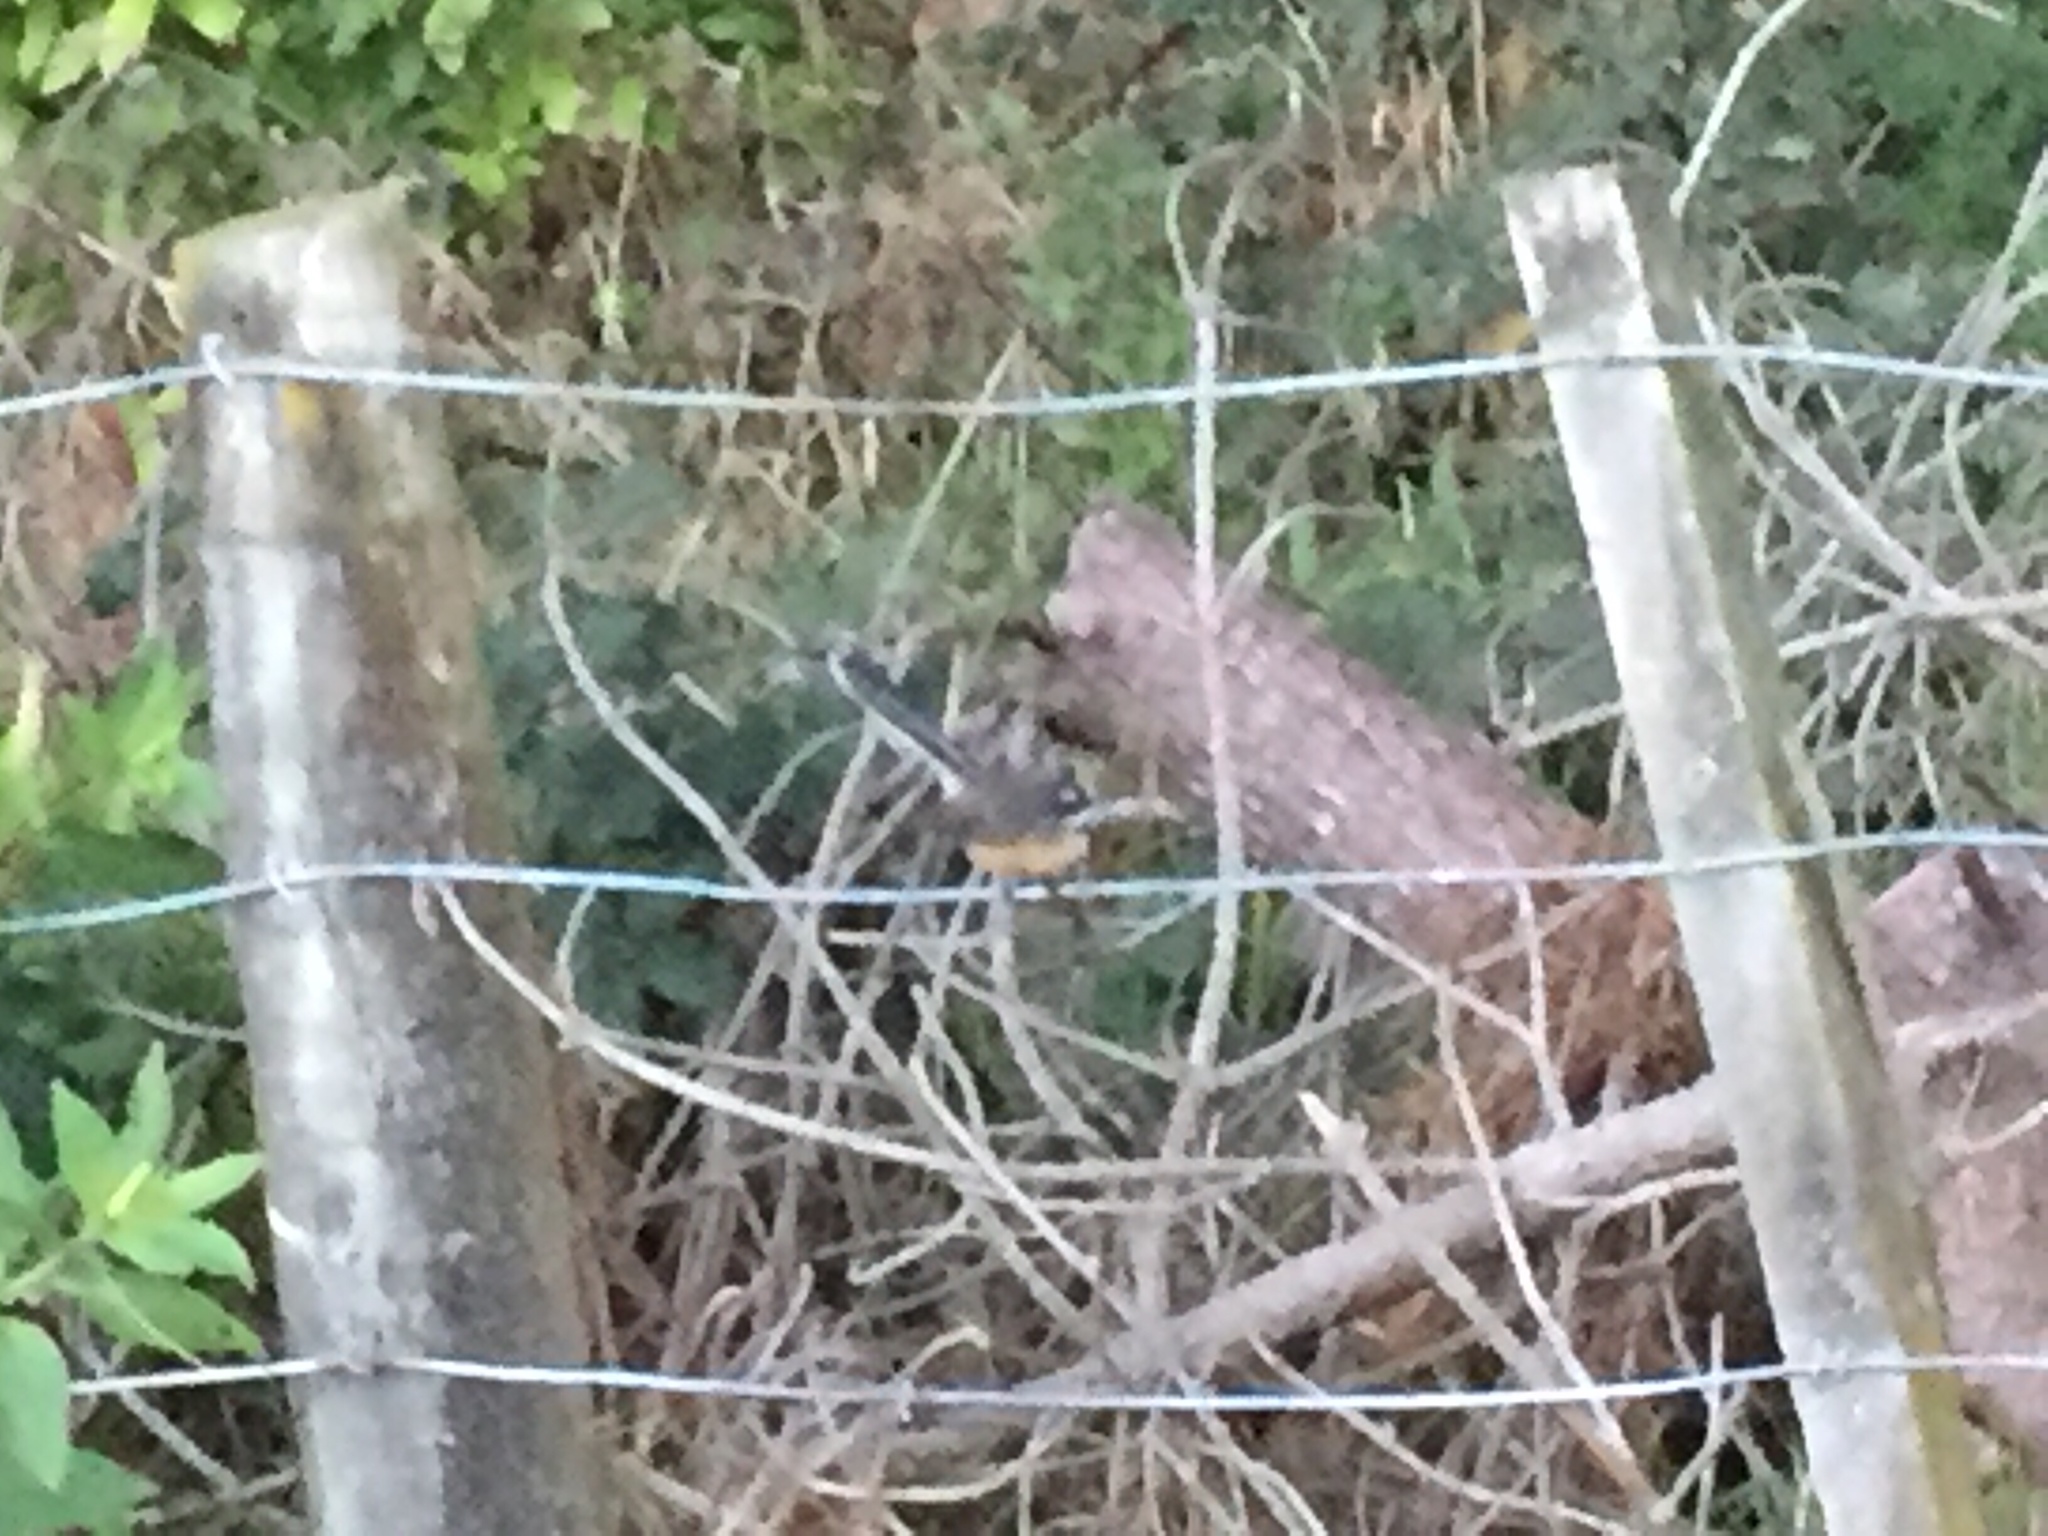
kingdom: Animalia
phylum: Chordata
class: Aves
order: Passeriformes
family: Rhipiduridae
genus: Rhipidura
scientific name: Rhipidura fuliginosa
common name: New zealand fantail
